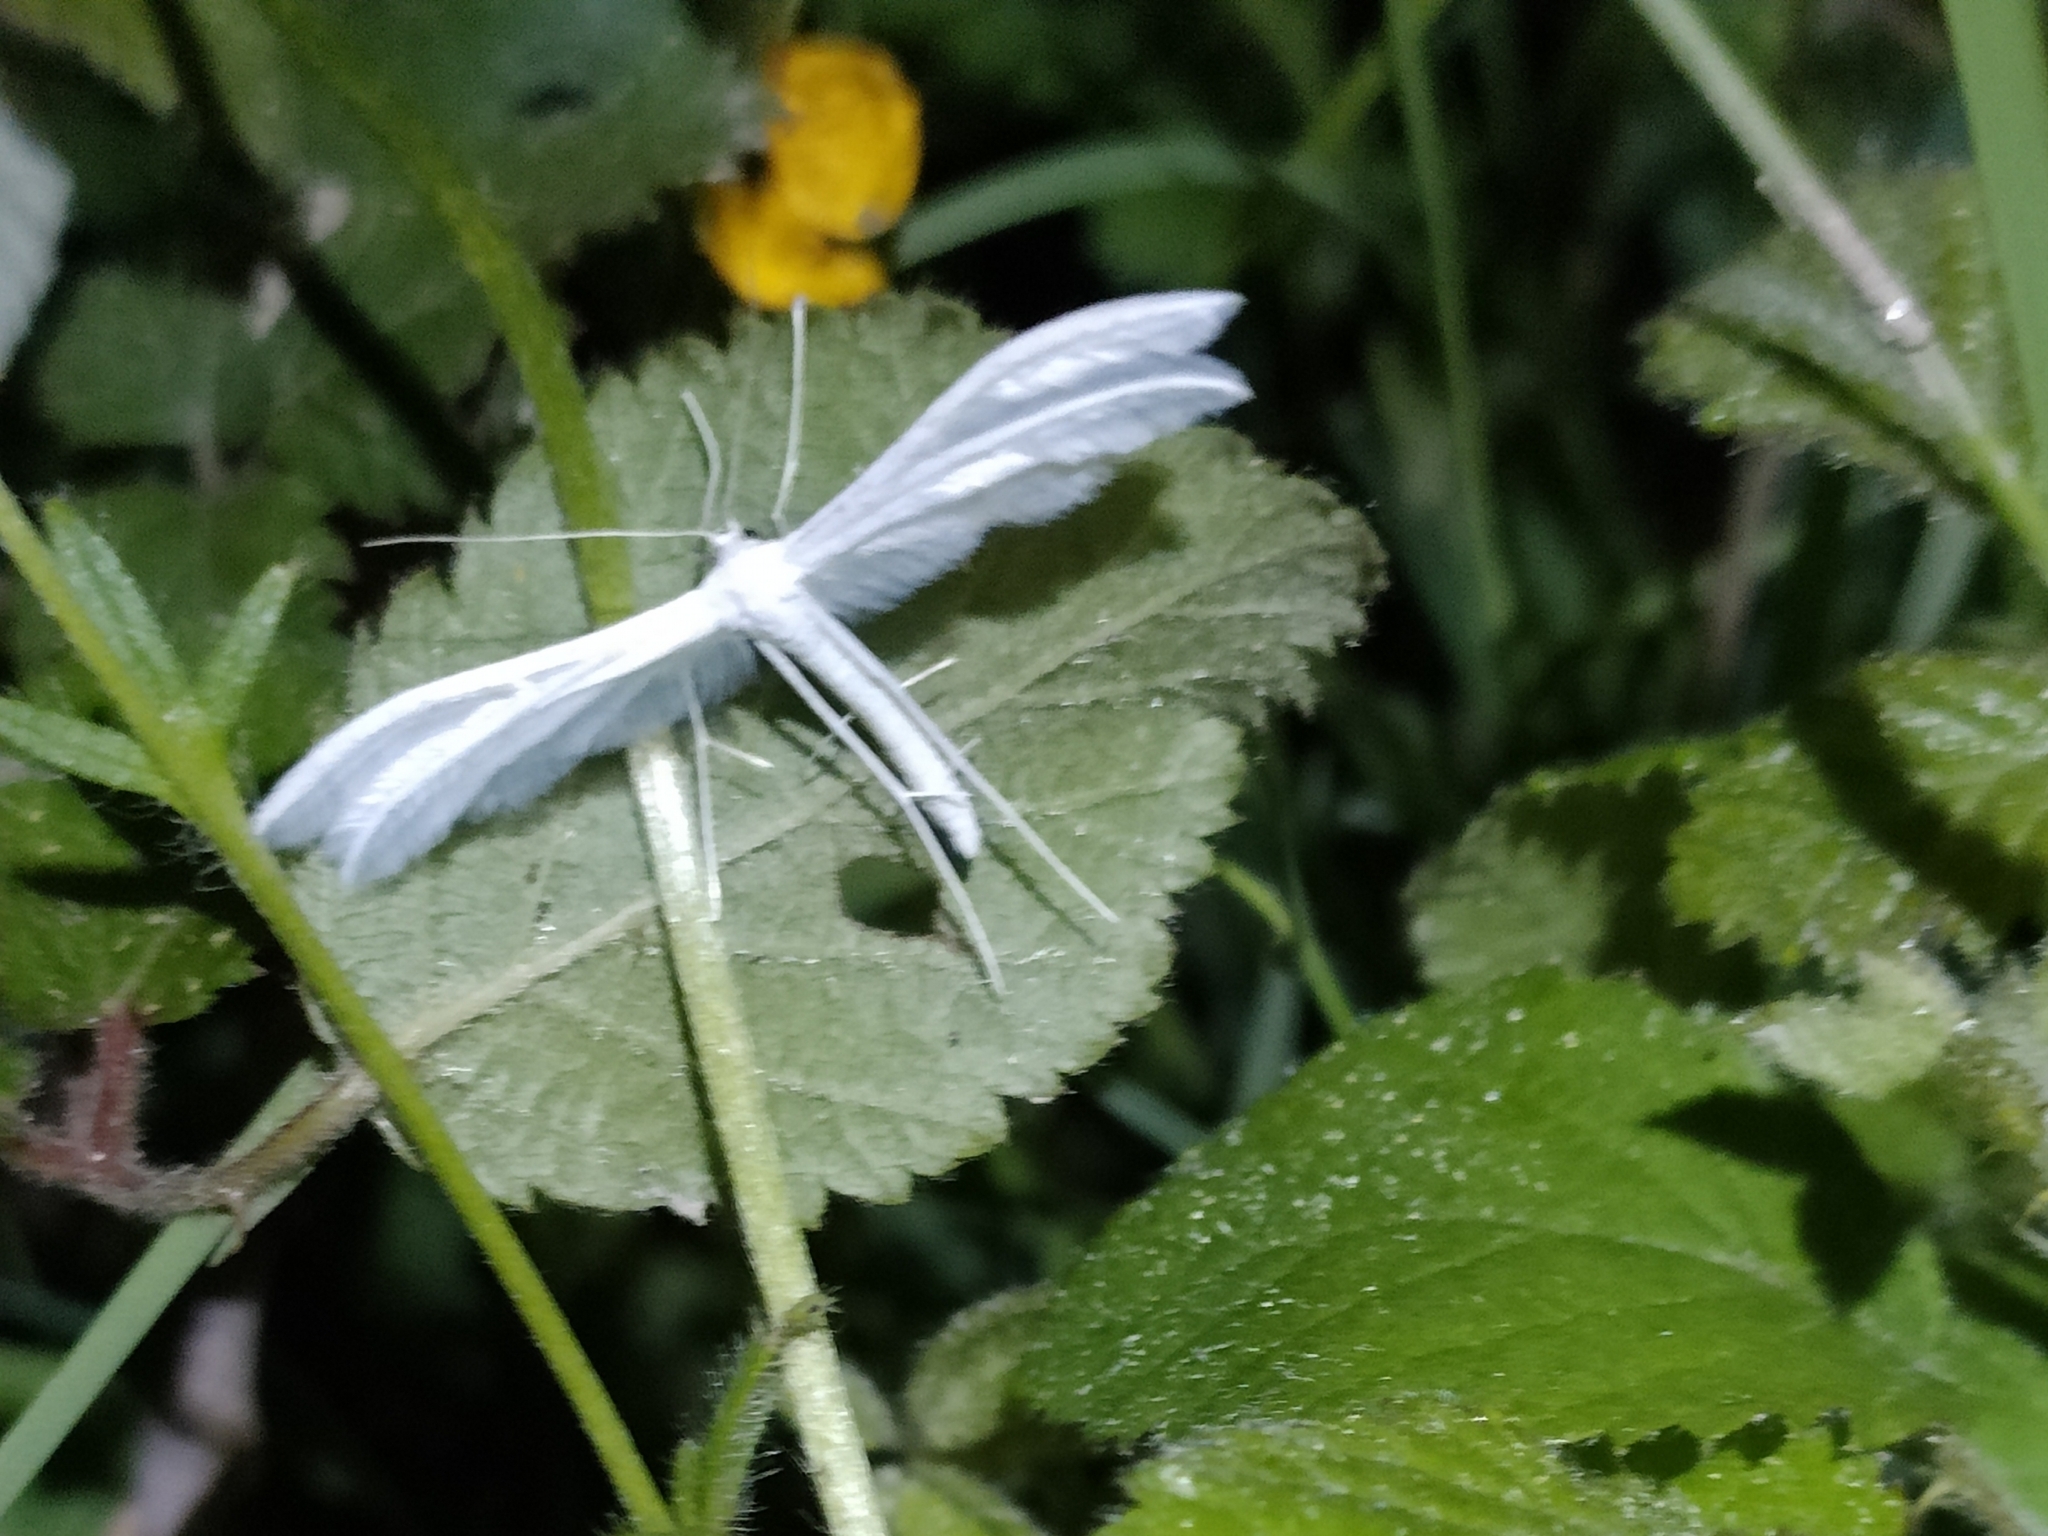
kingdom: Animalia
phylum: Arthropoda
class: Insecta
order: Lepidoptera
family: Pterophoridae
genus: Pterophorus
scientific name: Pterophorus pentadactyla
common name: White plume moth
